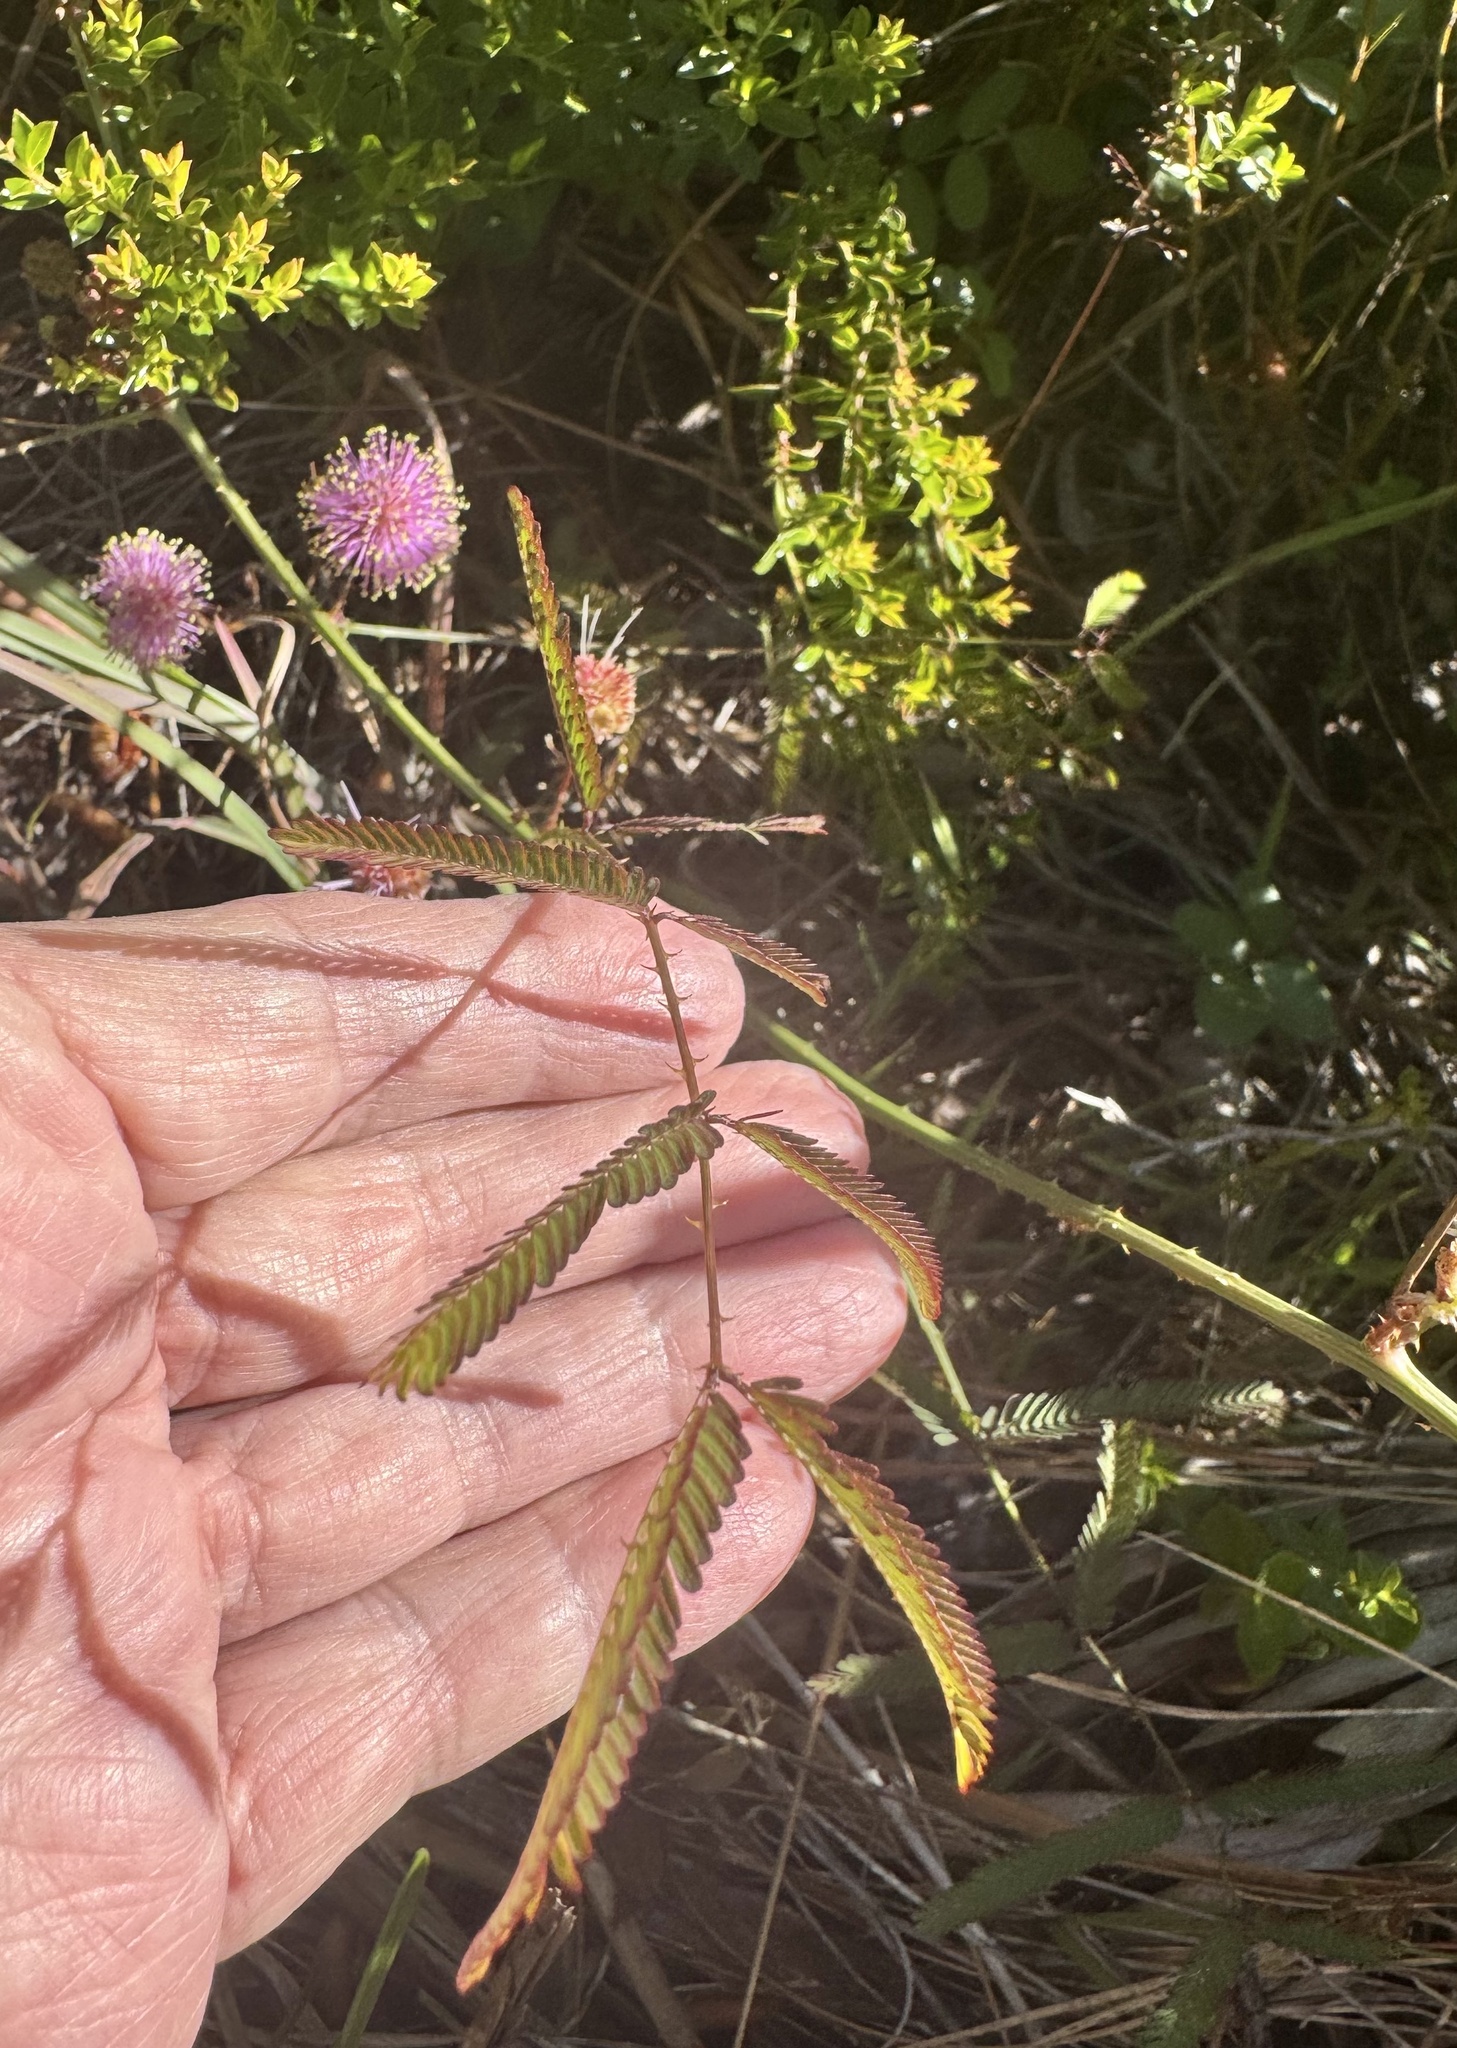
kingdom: Plantae
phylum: Tracheophyta
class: Magnoliopsida
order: Fabales
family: Fabaceae
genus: Mimosa
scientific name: Mimosa quadrivalvis
